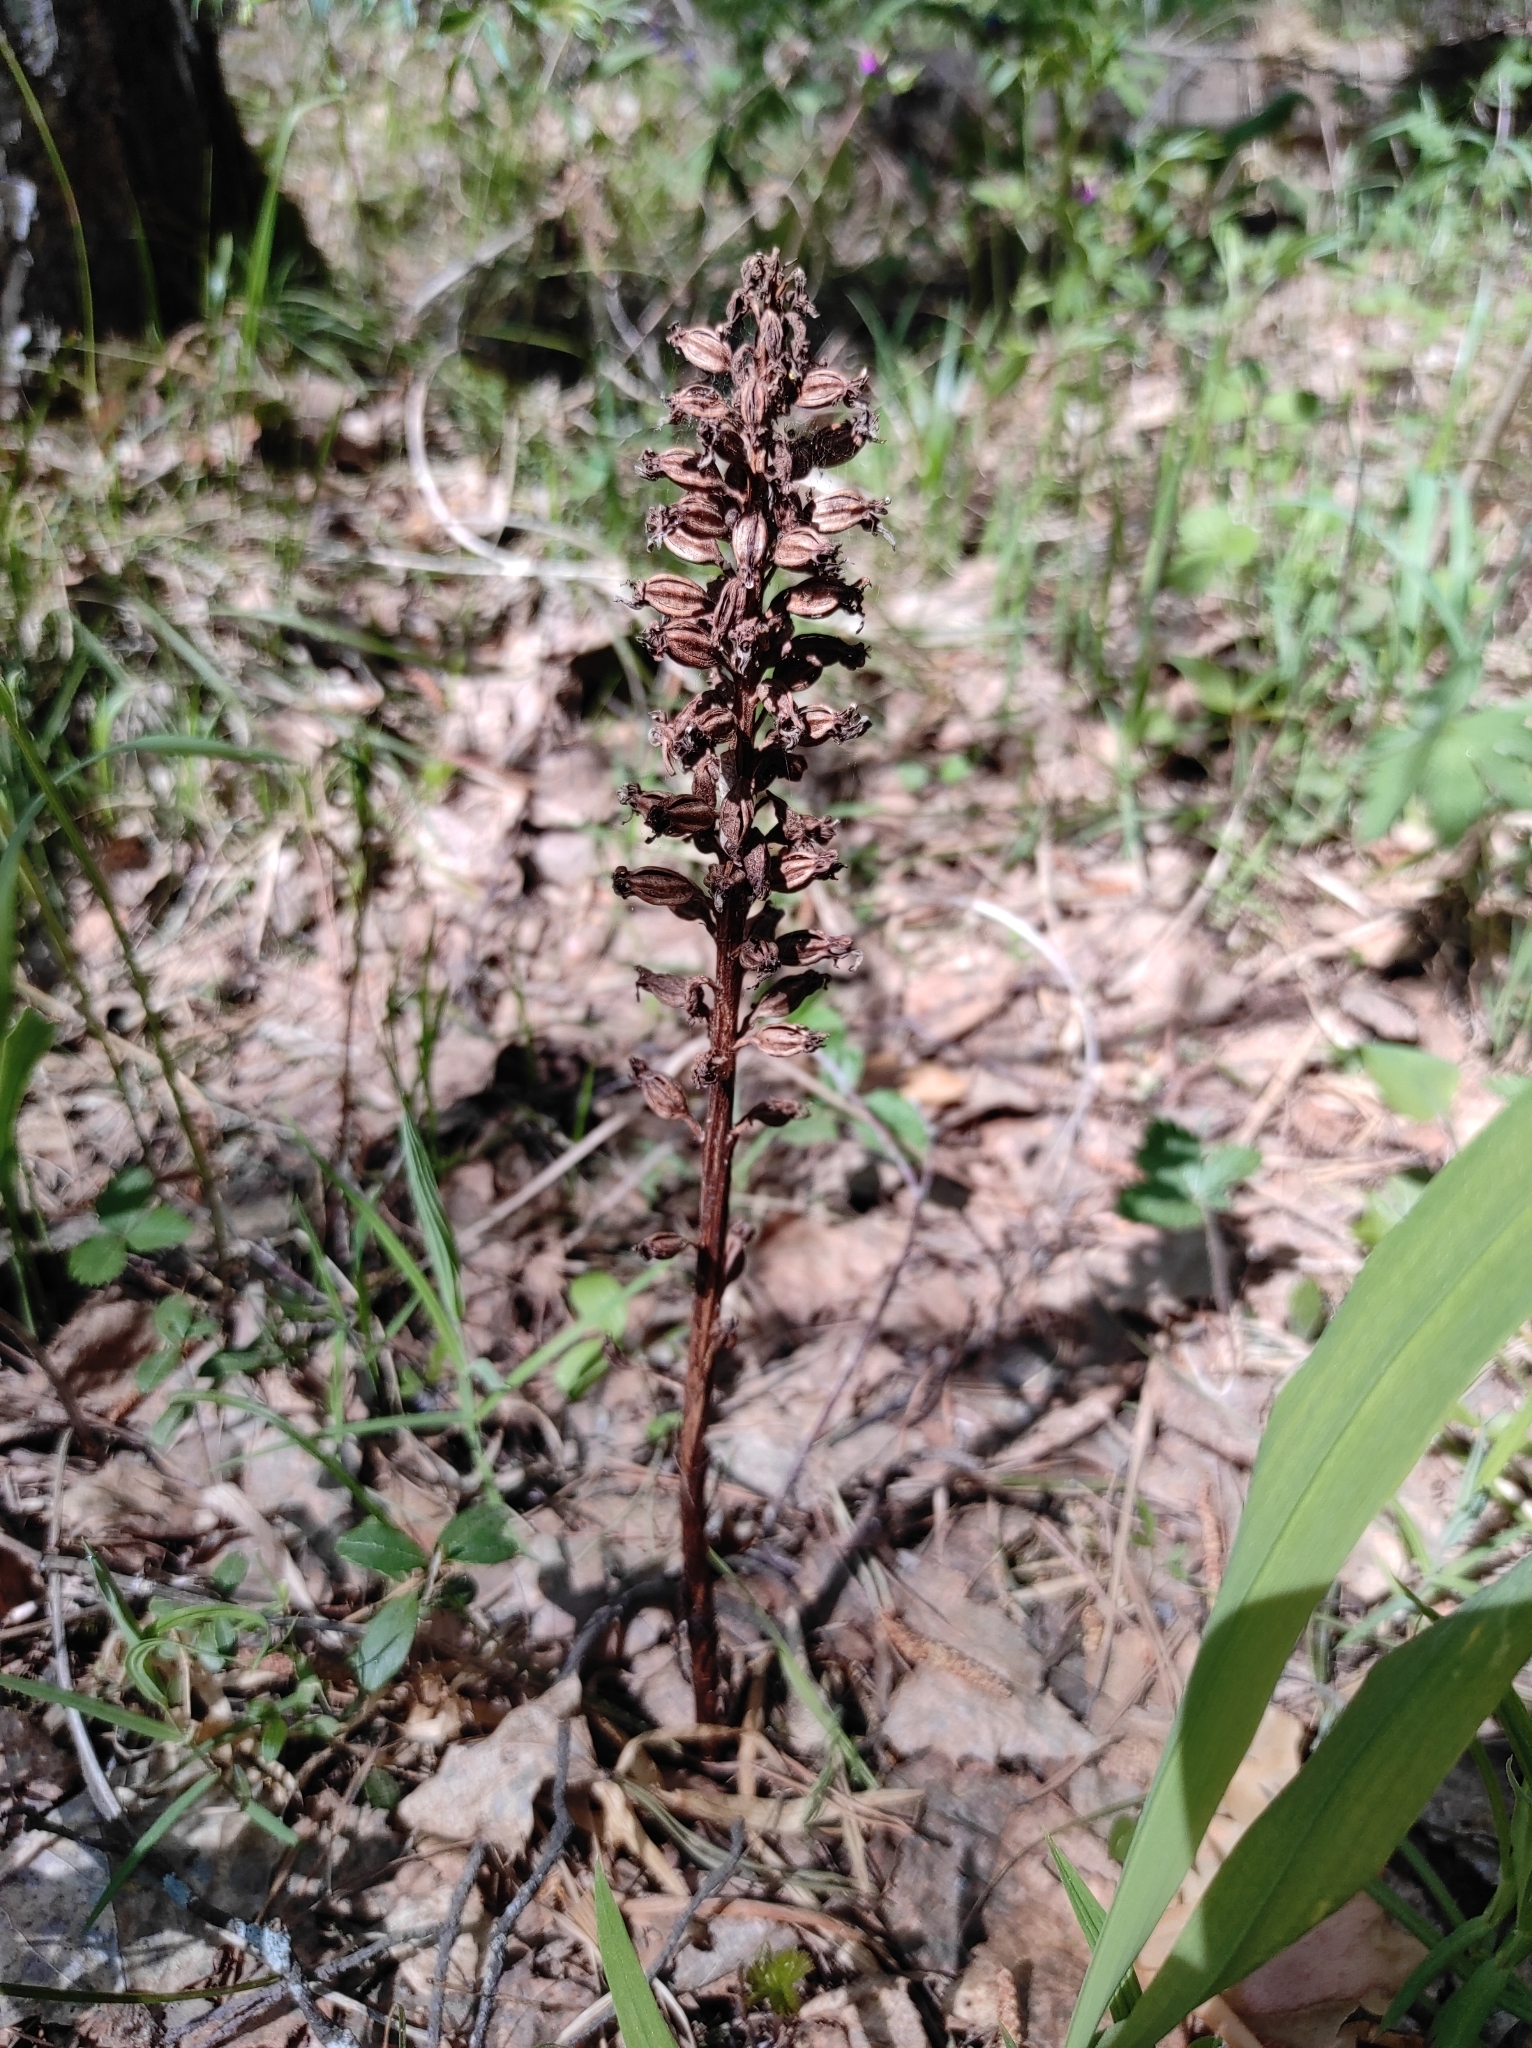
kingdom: Plantae
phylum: Tracheophyta
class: Liliopsida
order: Asparagales
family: Orchidaceae
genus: Neottia
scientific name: Neottia nidus-avis
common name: Bird's-nest orchid
